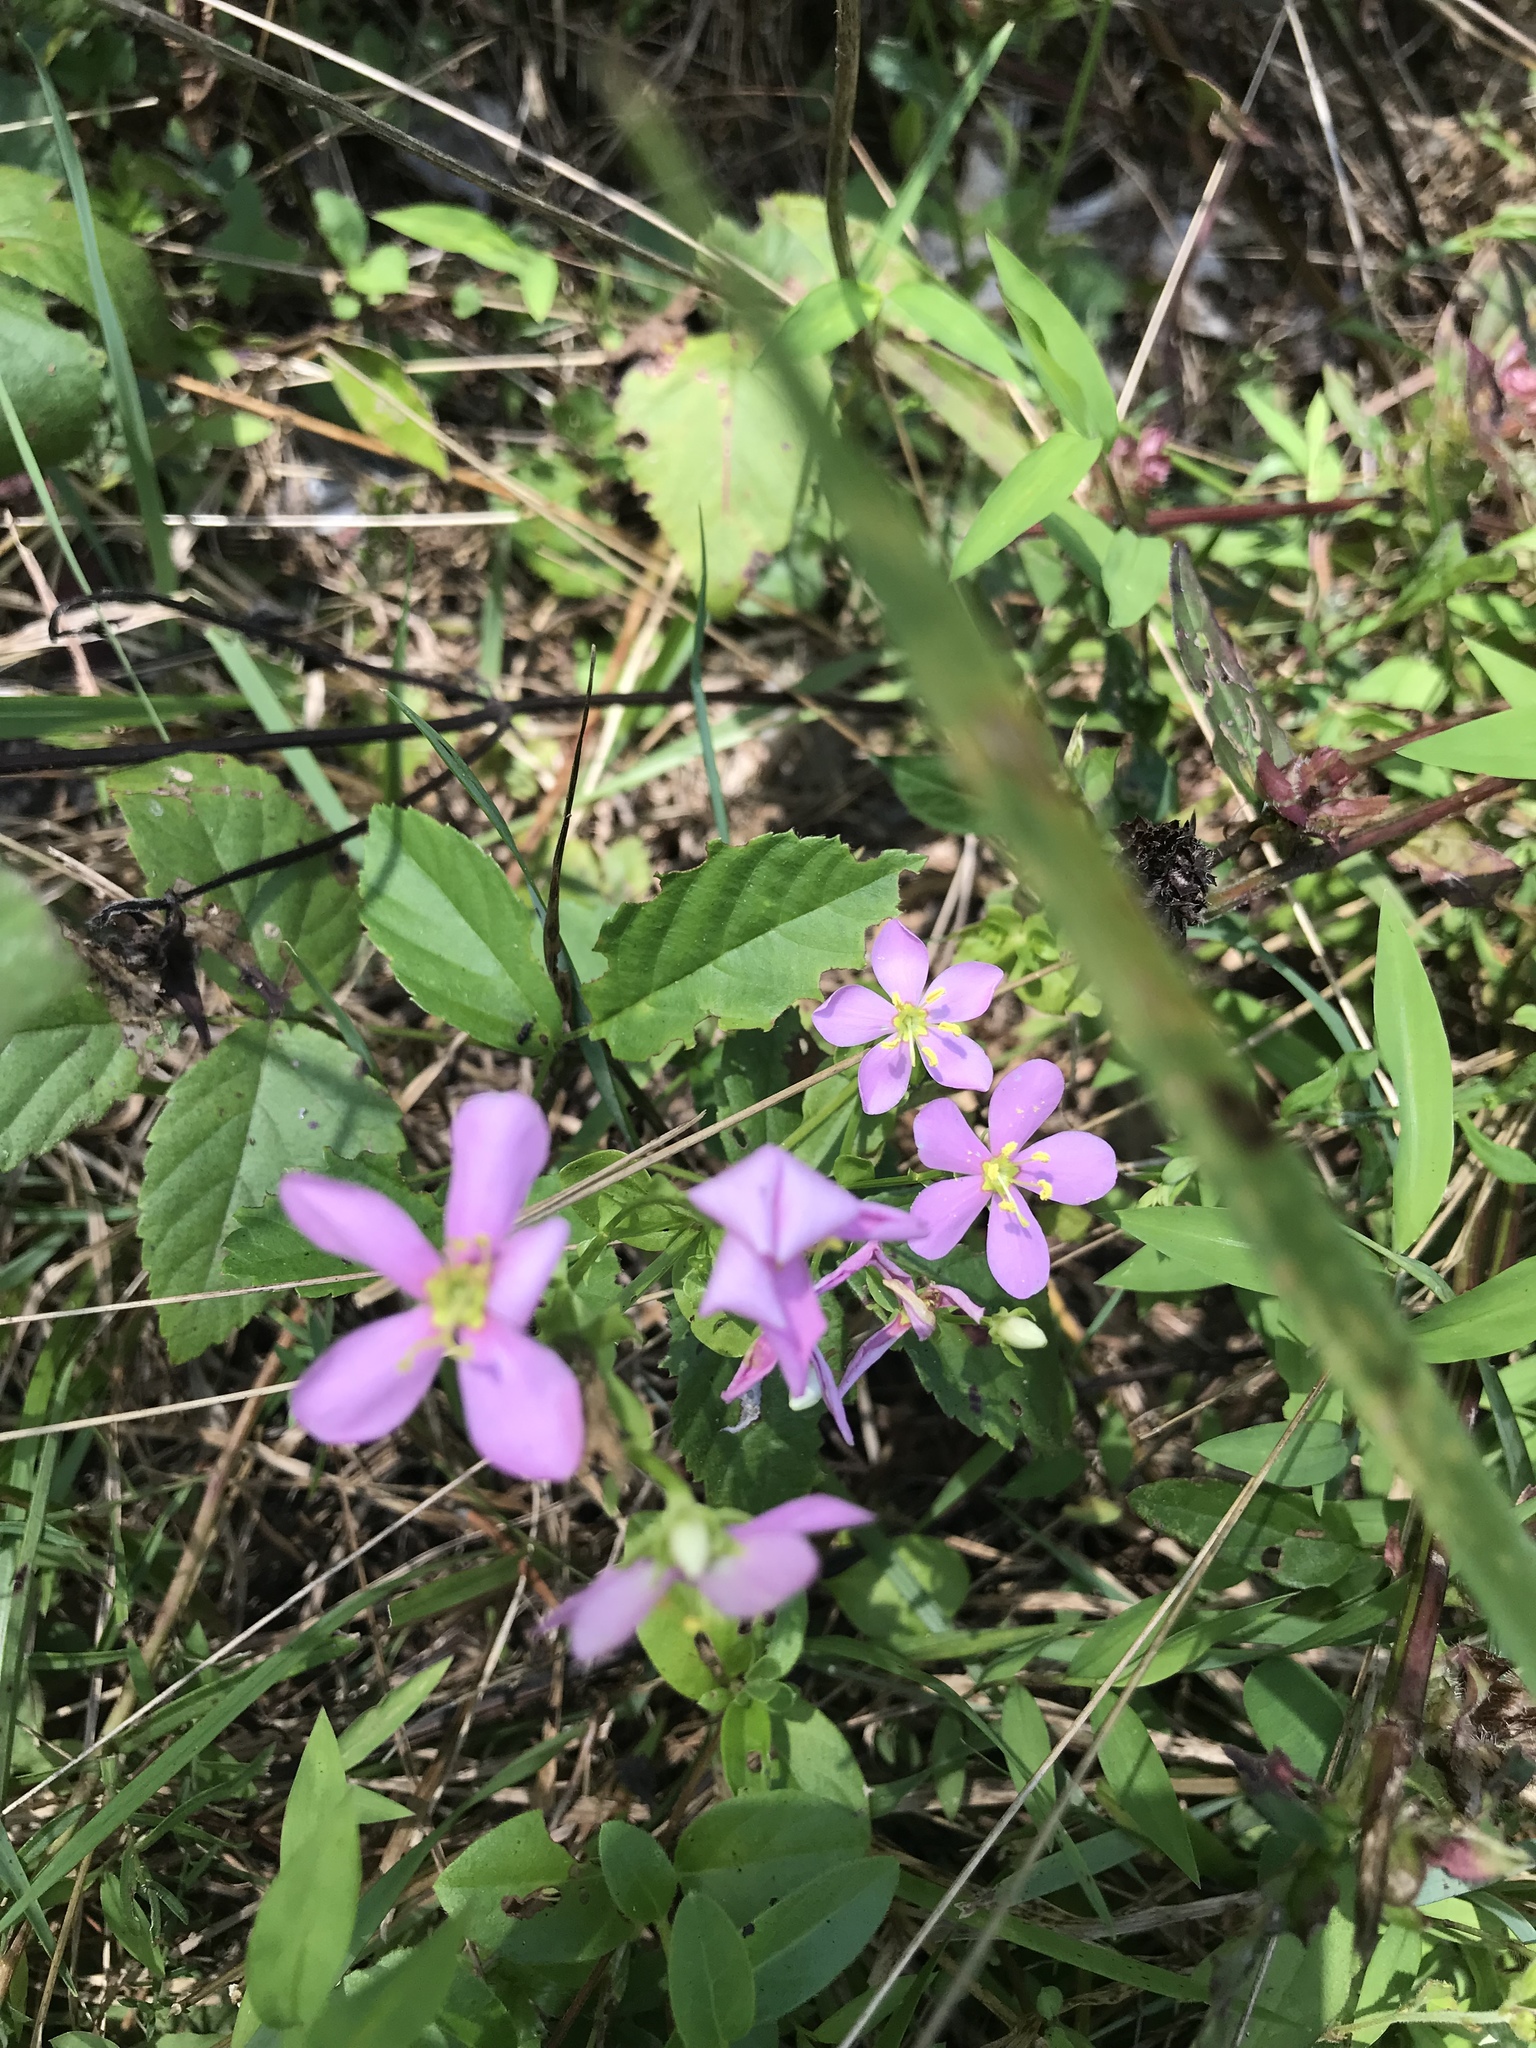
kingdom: Plantae
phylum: Tracheophyta
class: Magnoliopsida
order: Gentianales
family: Gentianaceae
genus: Sabatia
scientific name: Sabatia angularis
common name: Rose-pink
